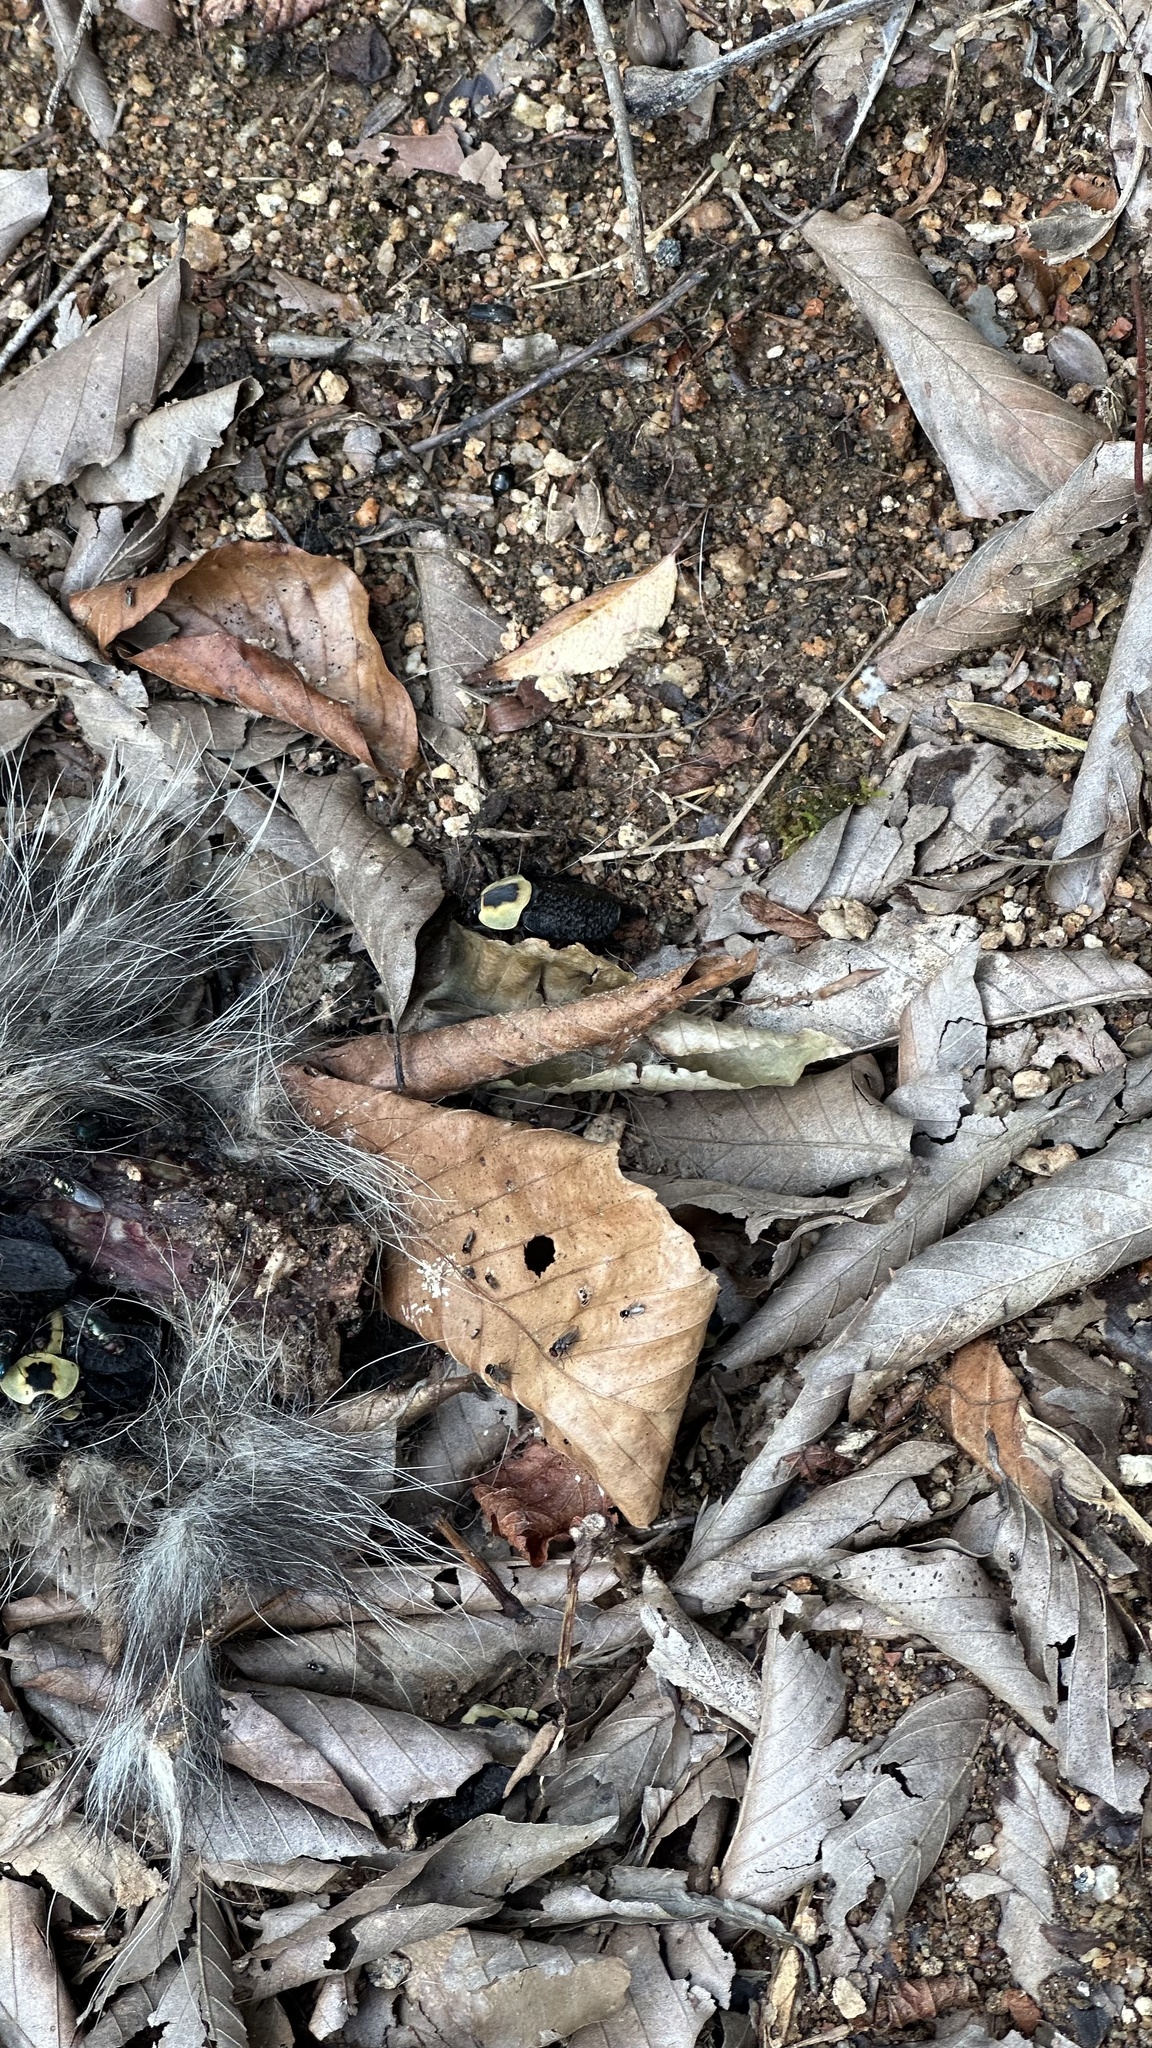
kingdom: Animalia
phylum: Arthropoda
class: Insecta
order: Coleoptera
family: Staphylinidae
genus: Necrophila
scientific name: Necrophila americana
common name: American carrion beetle
